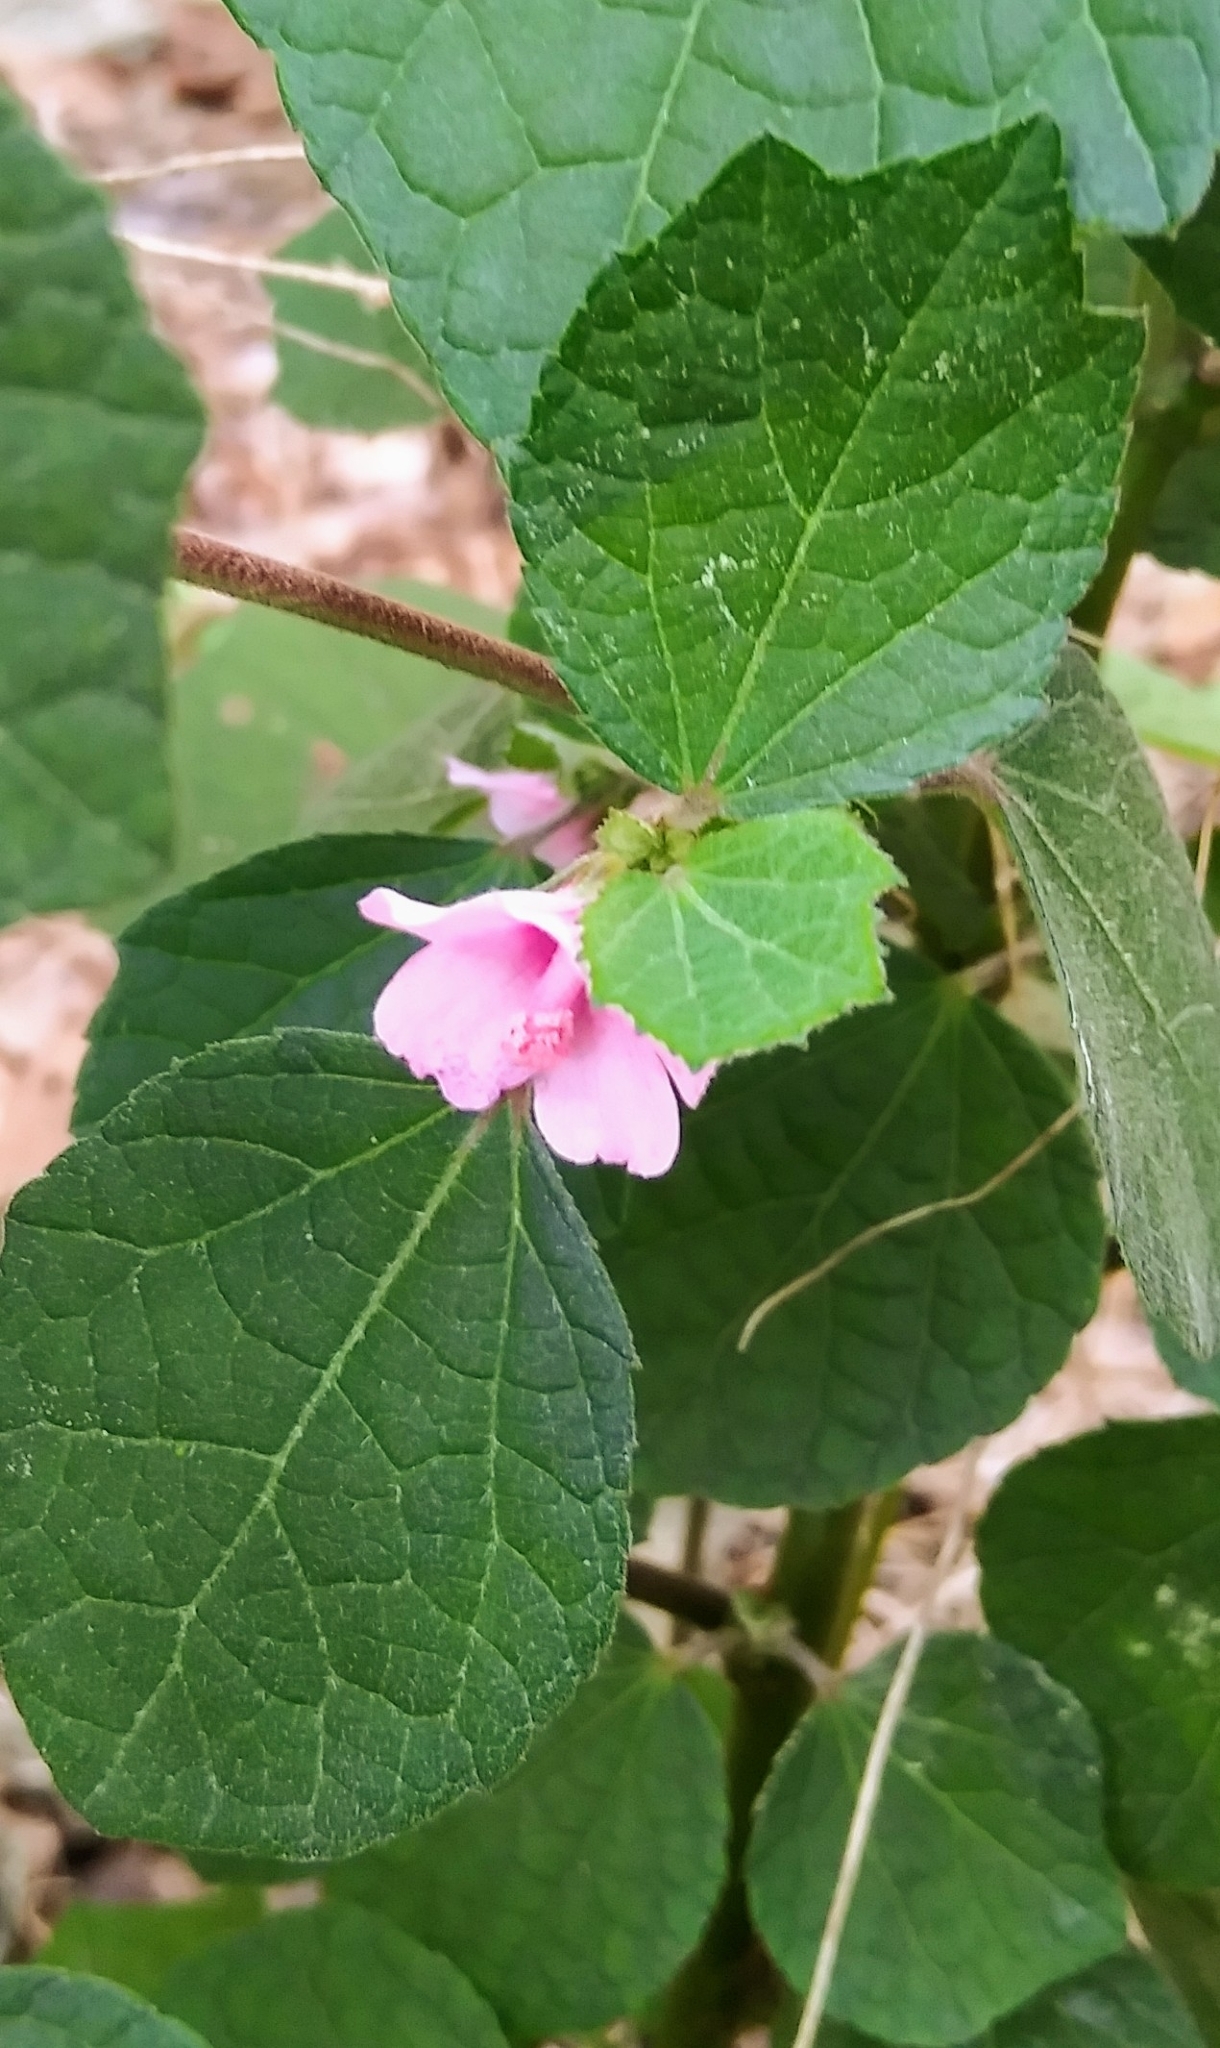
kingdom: Plantae
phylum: Tracheophyta
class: Magnoliopsida
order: Malvales
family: Malvaceae
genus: Urena
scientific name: Urena lobata
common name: Caesarweed
